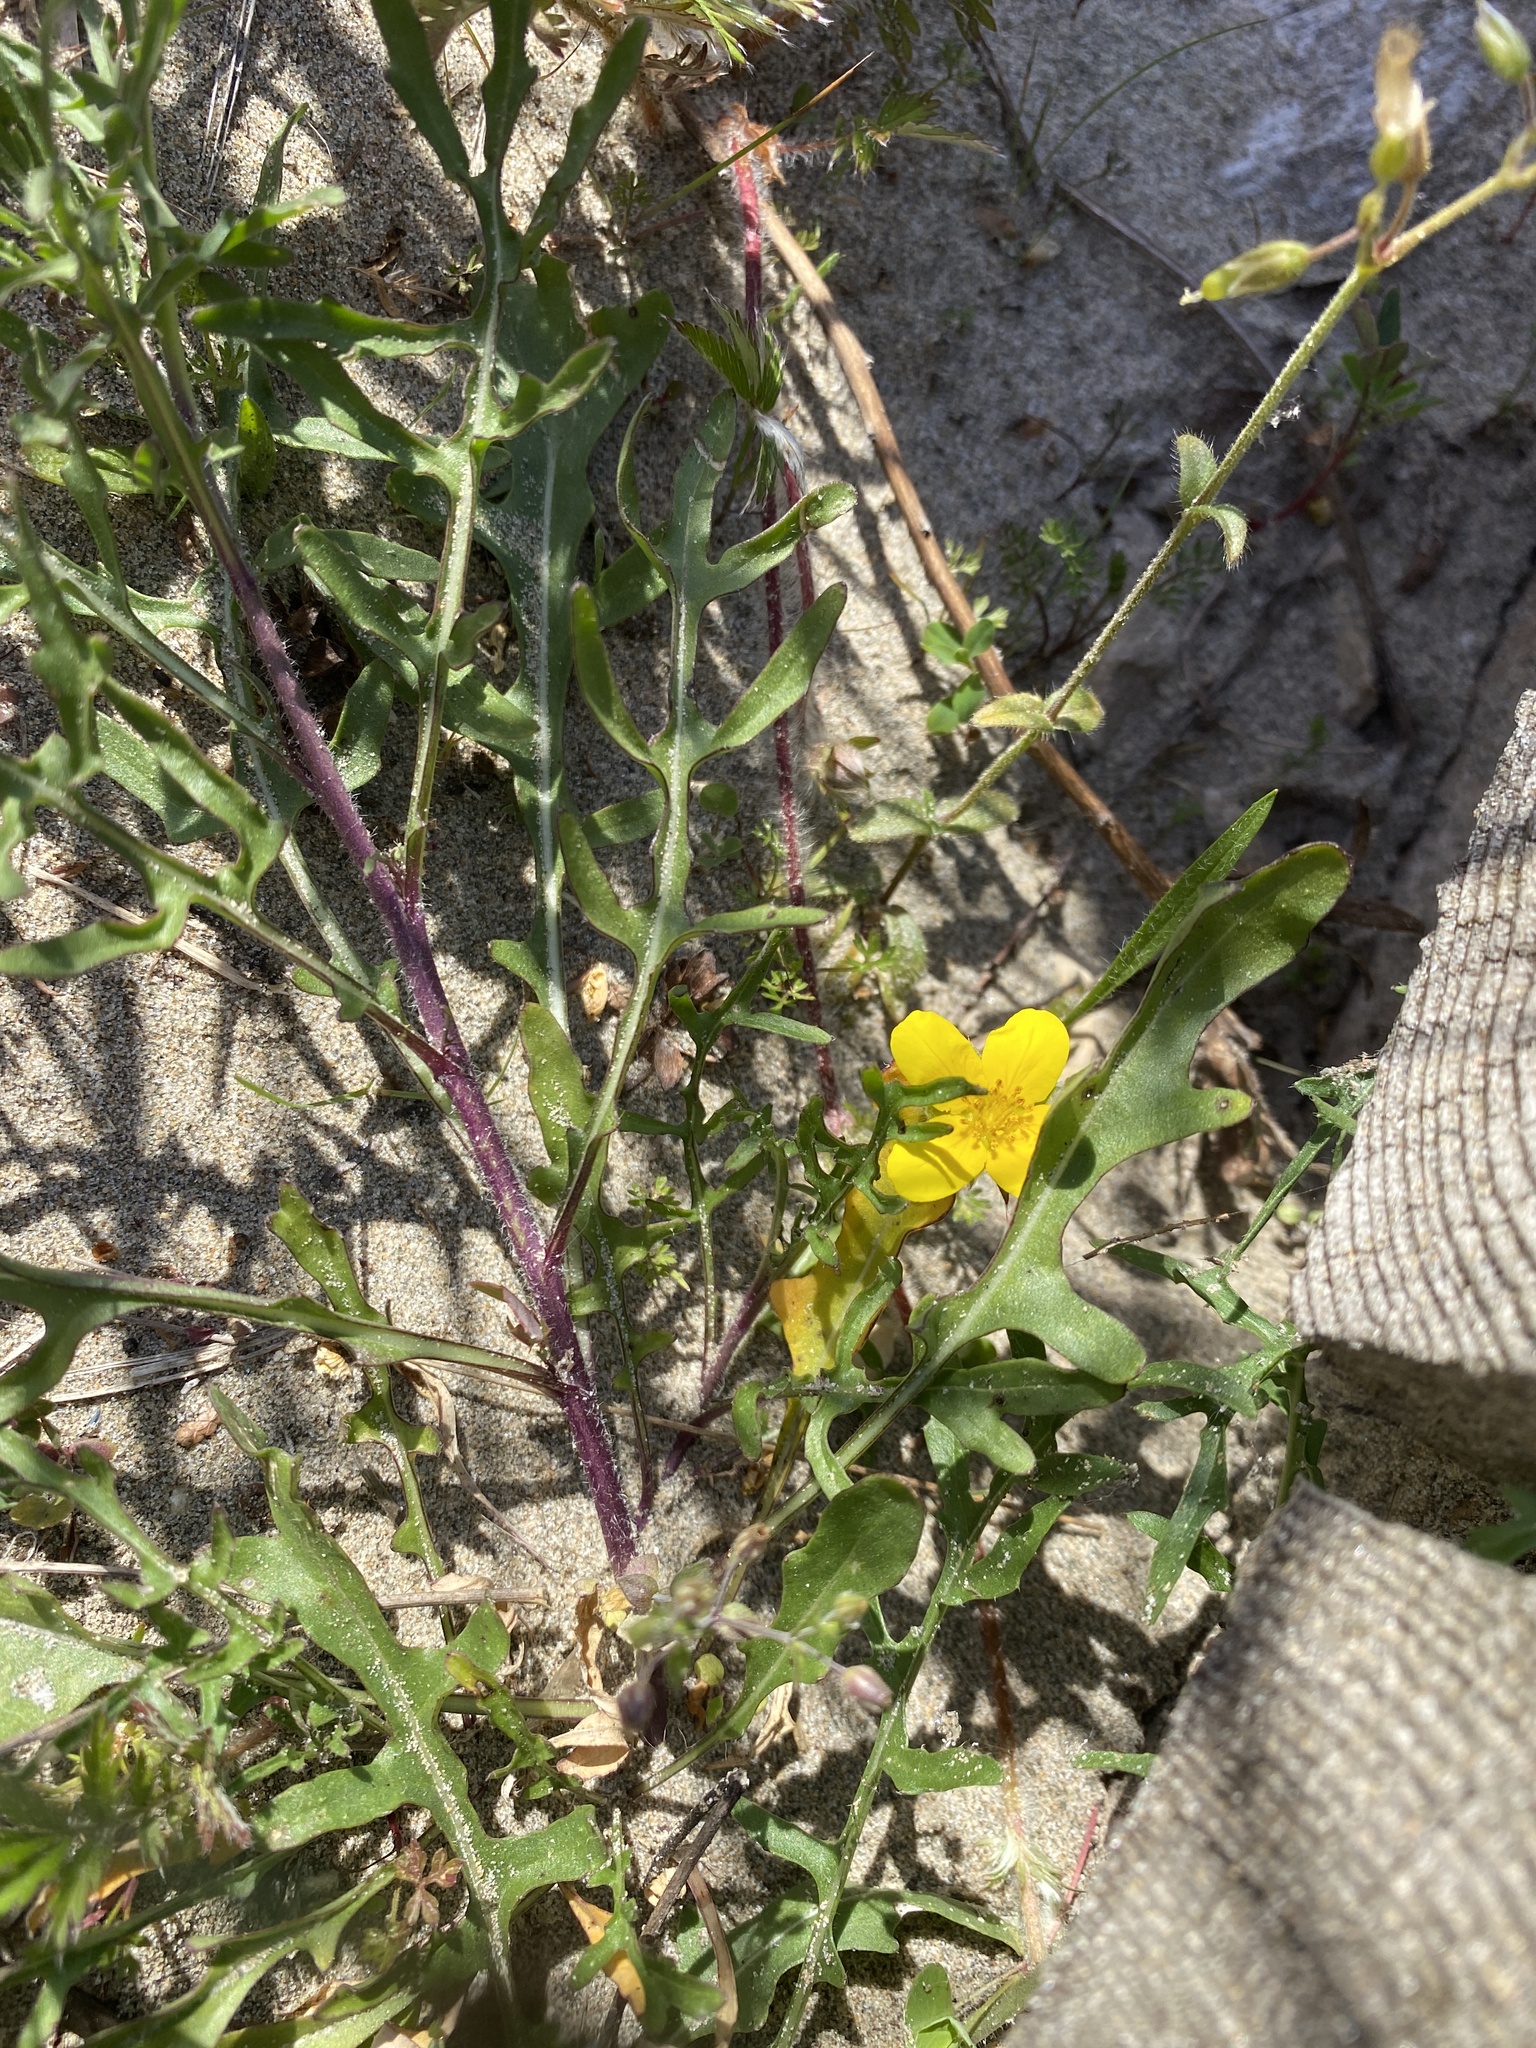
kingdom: Plantae
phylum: Tracheophyta
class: Magnoliopsida
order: Brassicales
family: Brassicaceae
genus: Diplotaxis
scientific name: Diplotaxis tenuifolia
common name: Perennial wall-rocket
